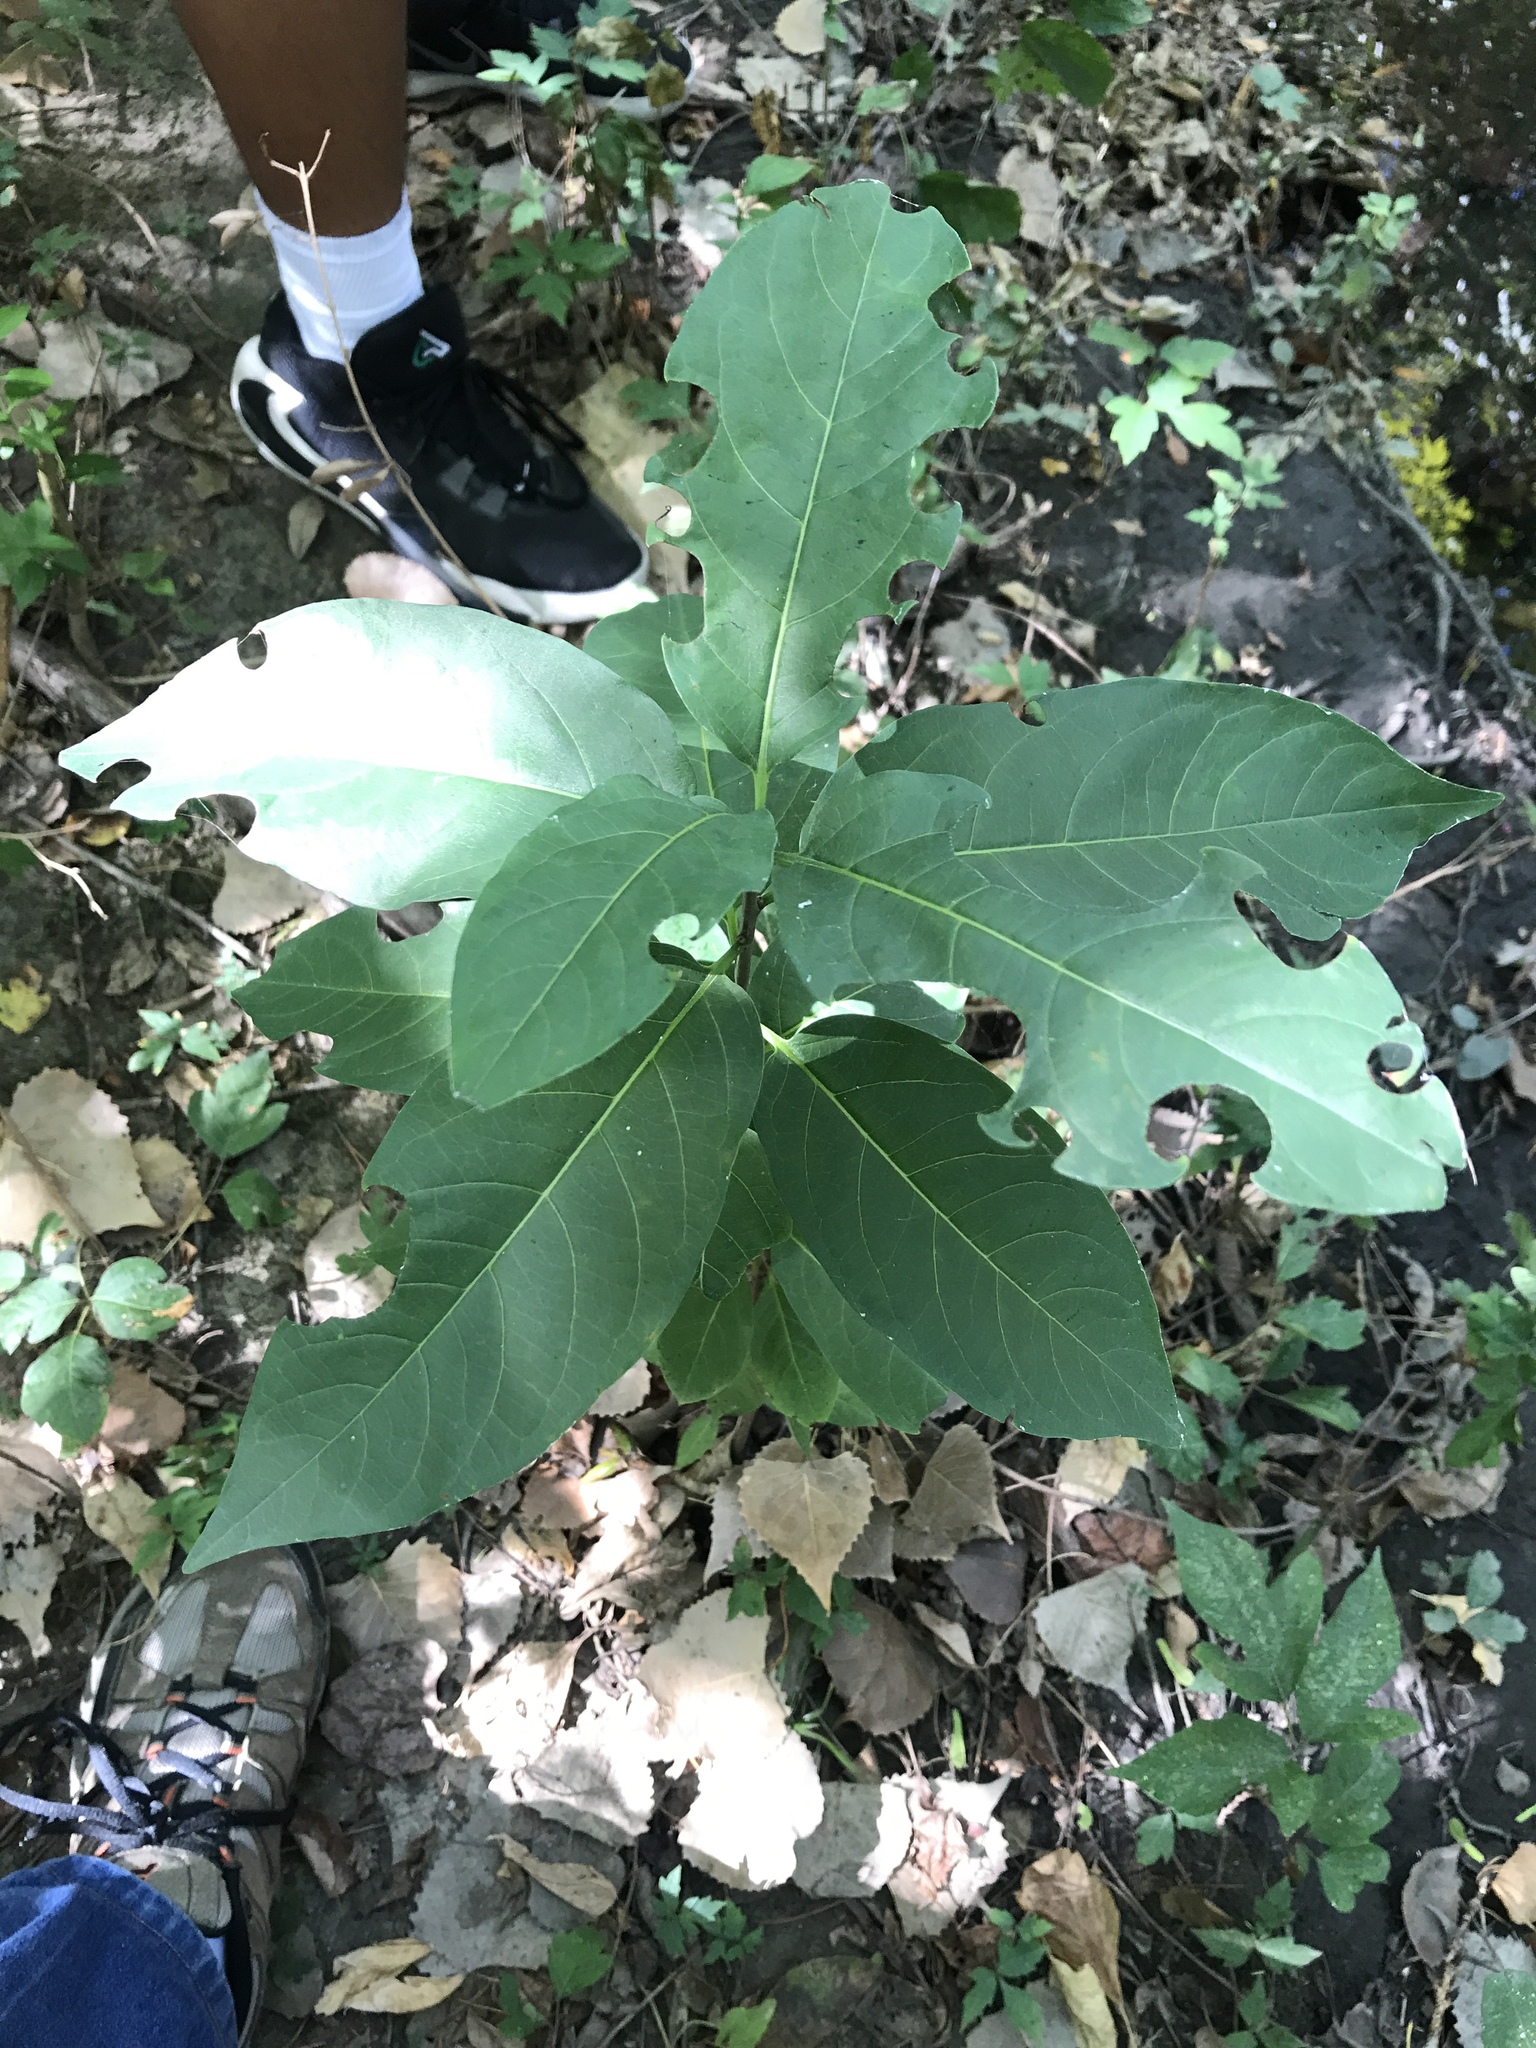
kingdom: Plantae
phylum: Tracheophyta
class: Magnoliopsida
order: Caryophyllales
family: Phytolaccaceae
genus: Phytolacca
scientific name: Phytolacca americana
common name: American pokeweed
